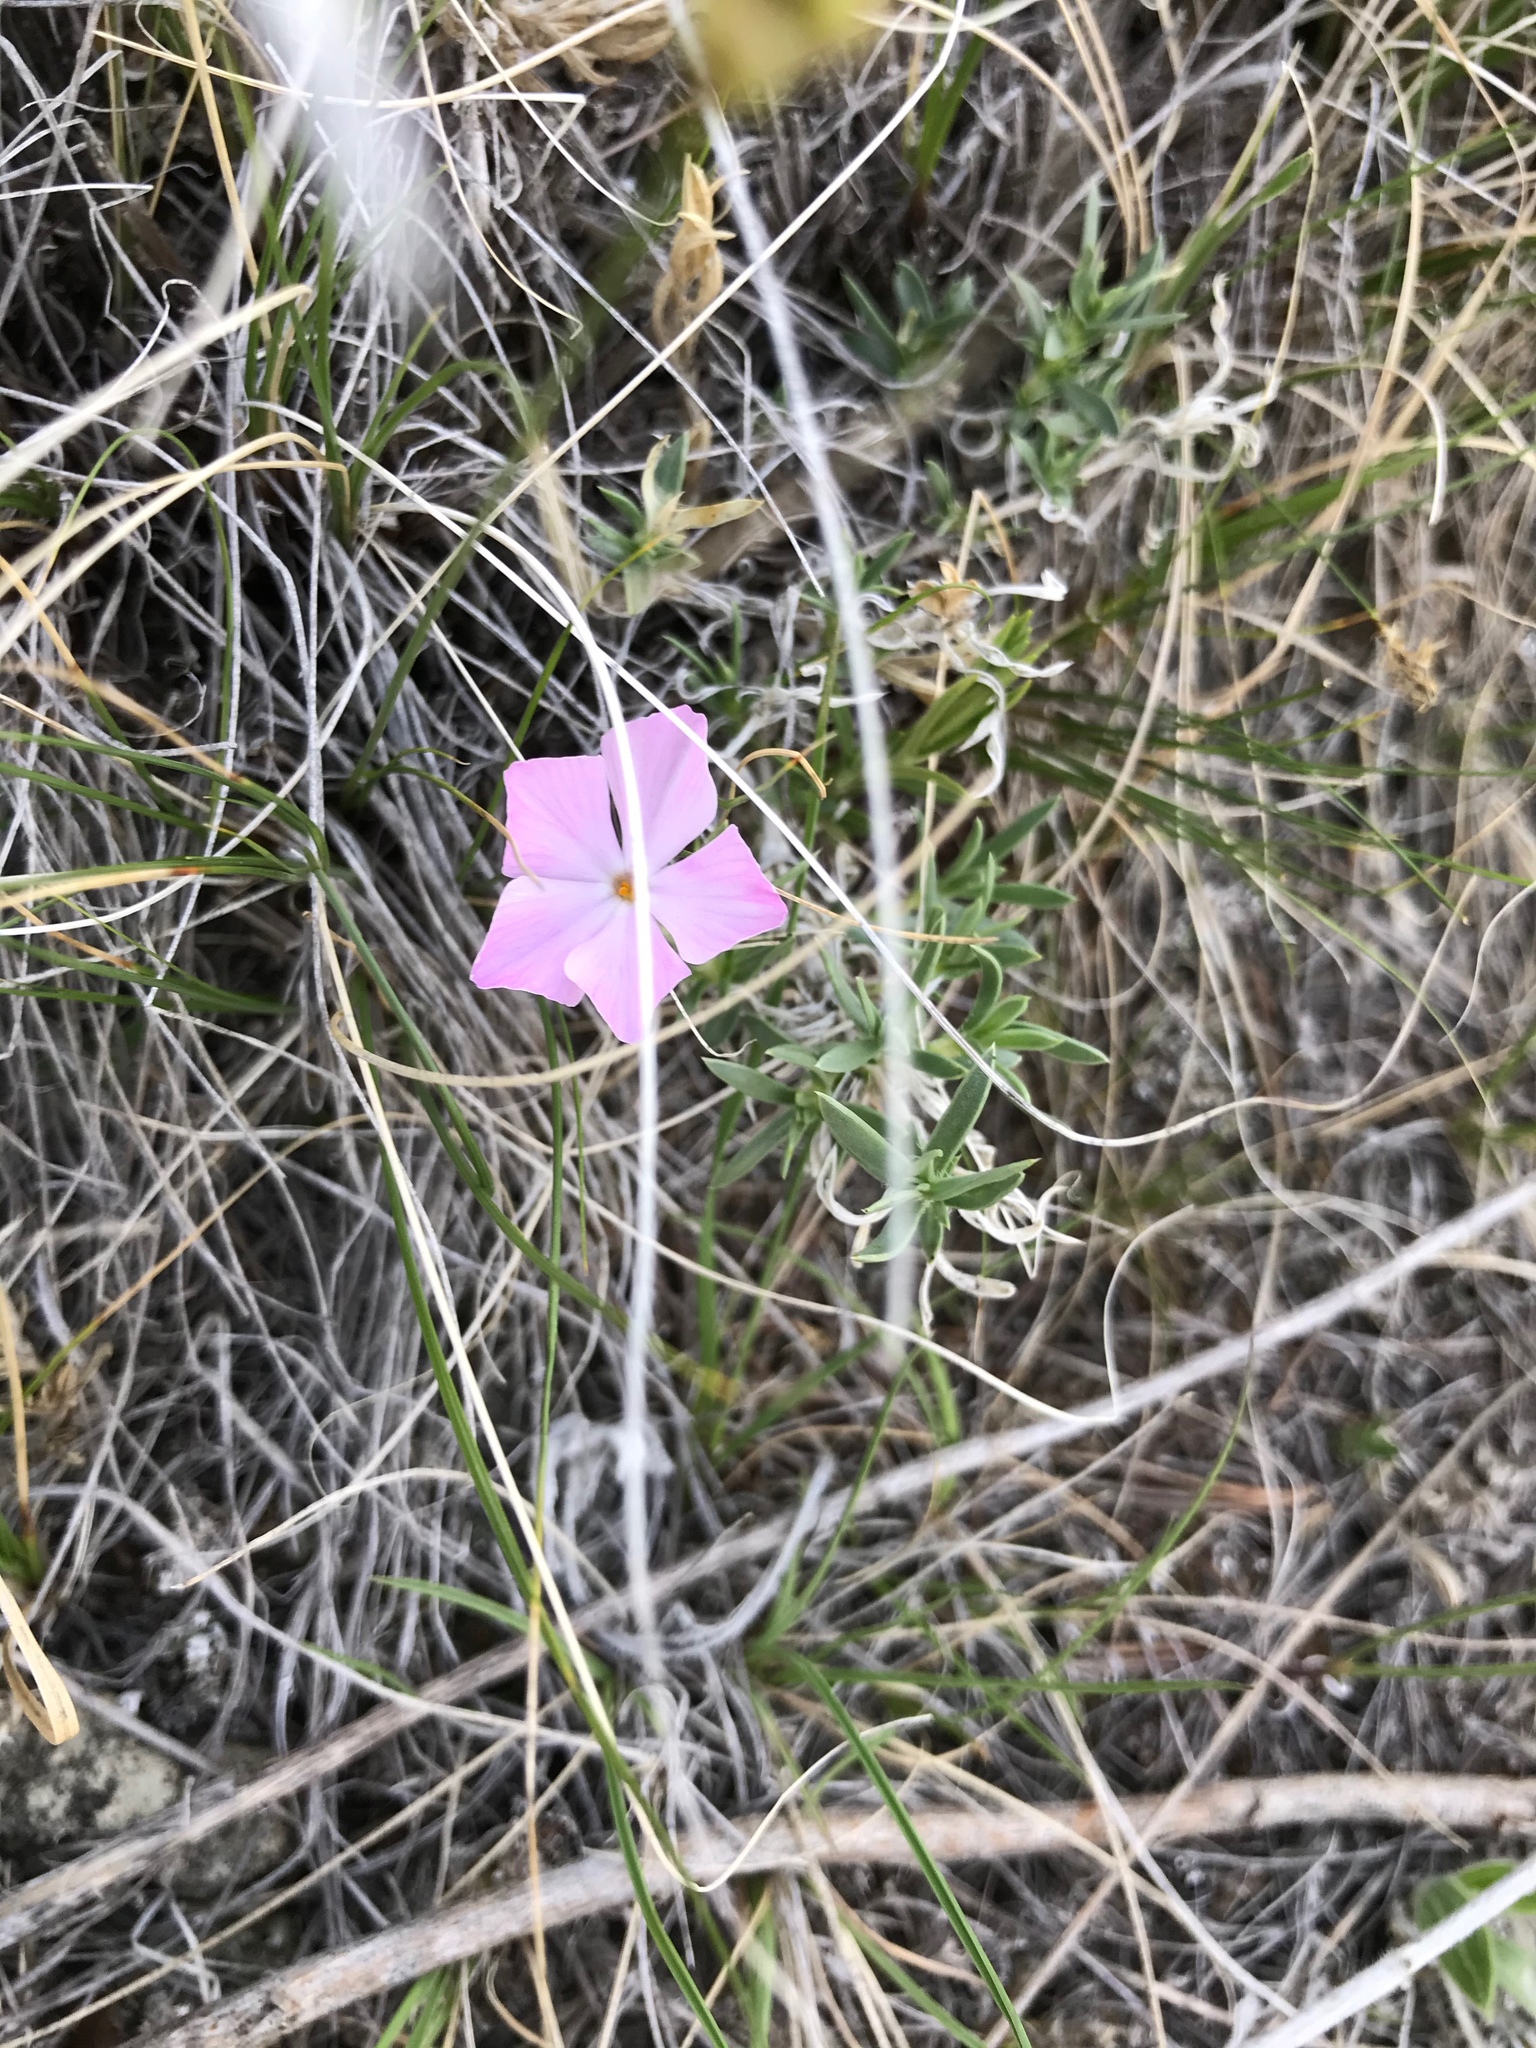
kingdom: Plantae
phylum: Tracheophyta
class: Magnoliopsida
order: Ericales
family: Polemoniaceae
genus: Phlox
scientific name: Phlox alyssifolia
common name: Blue phlox
